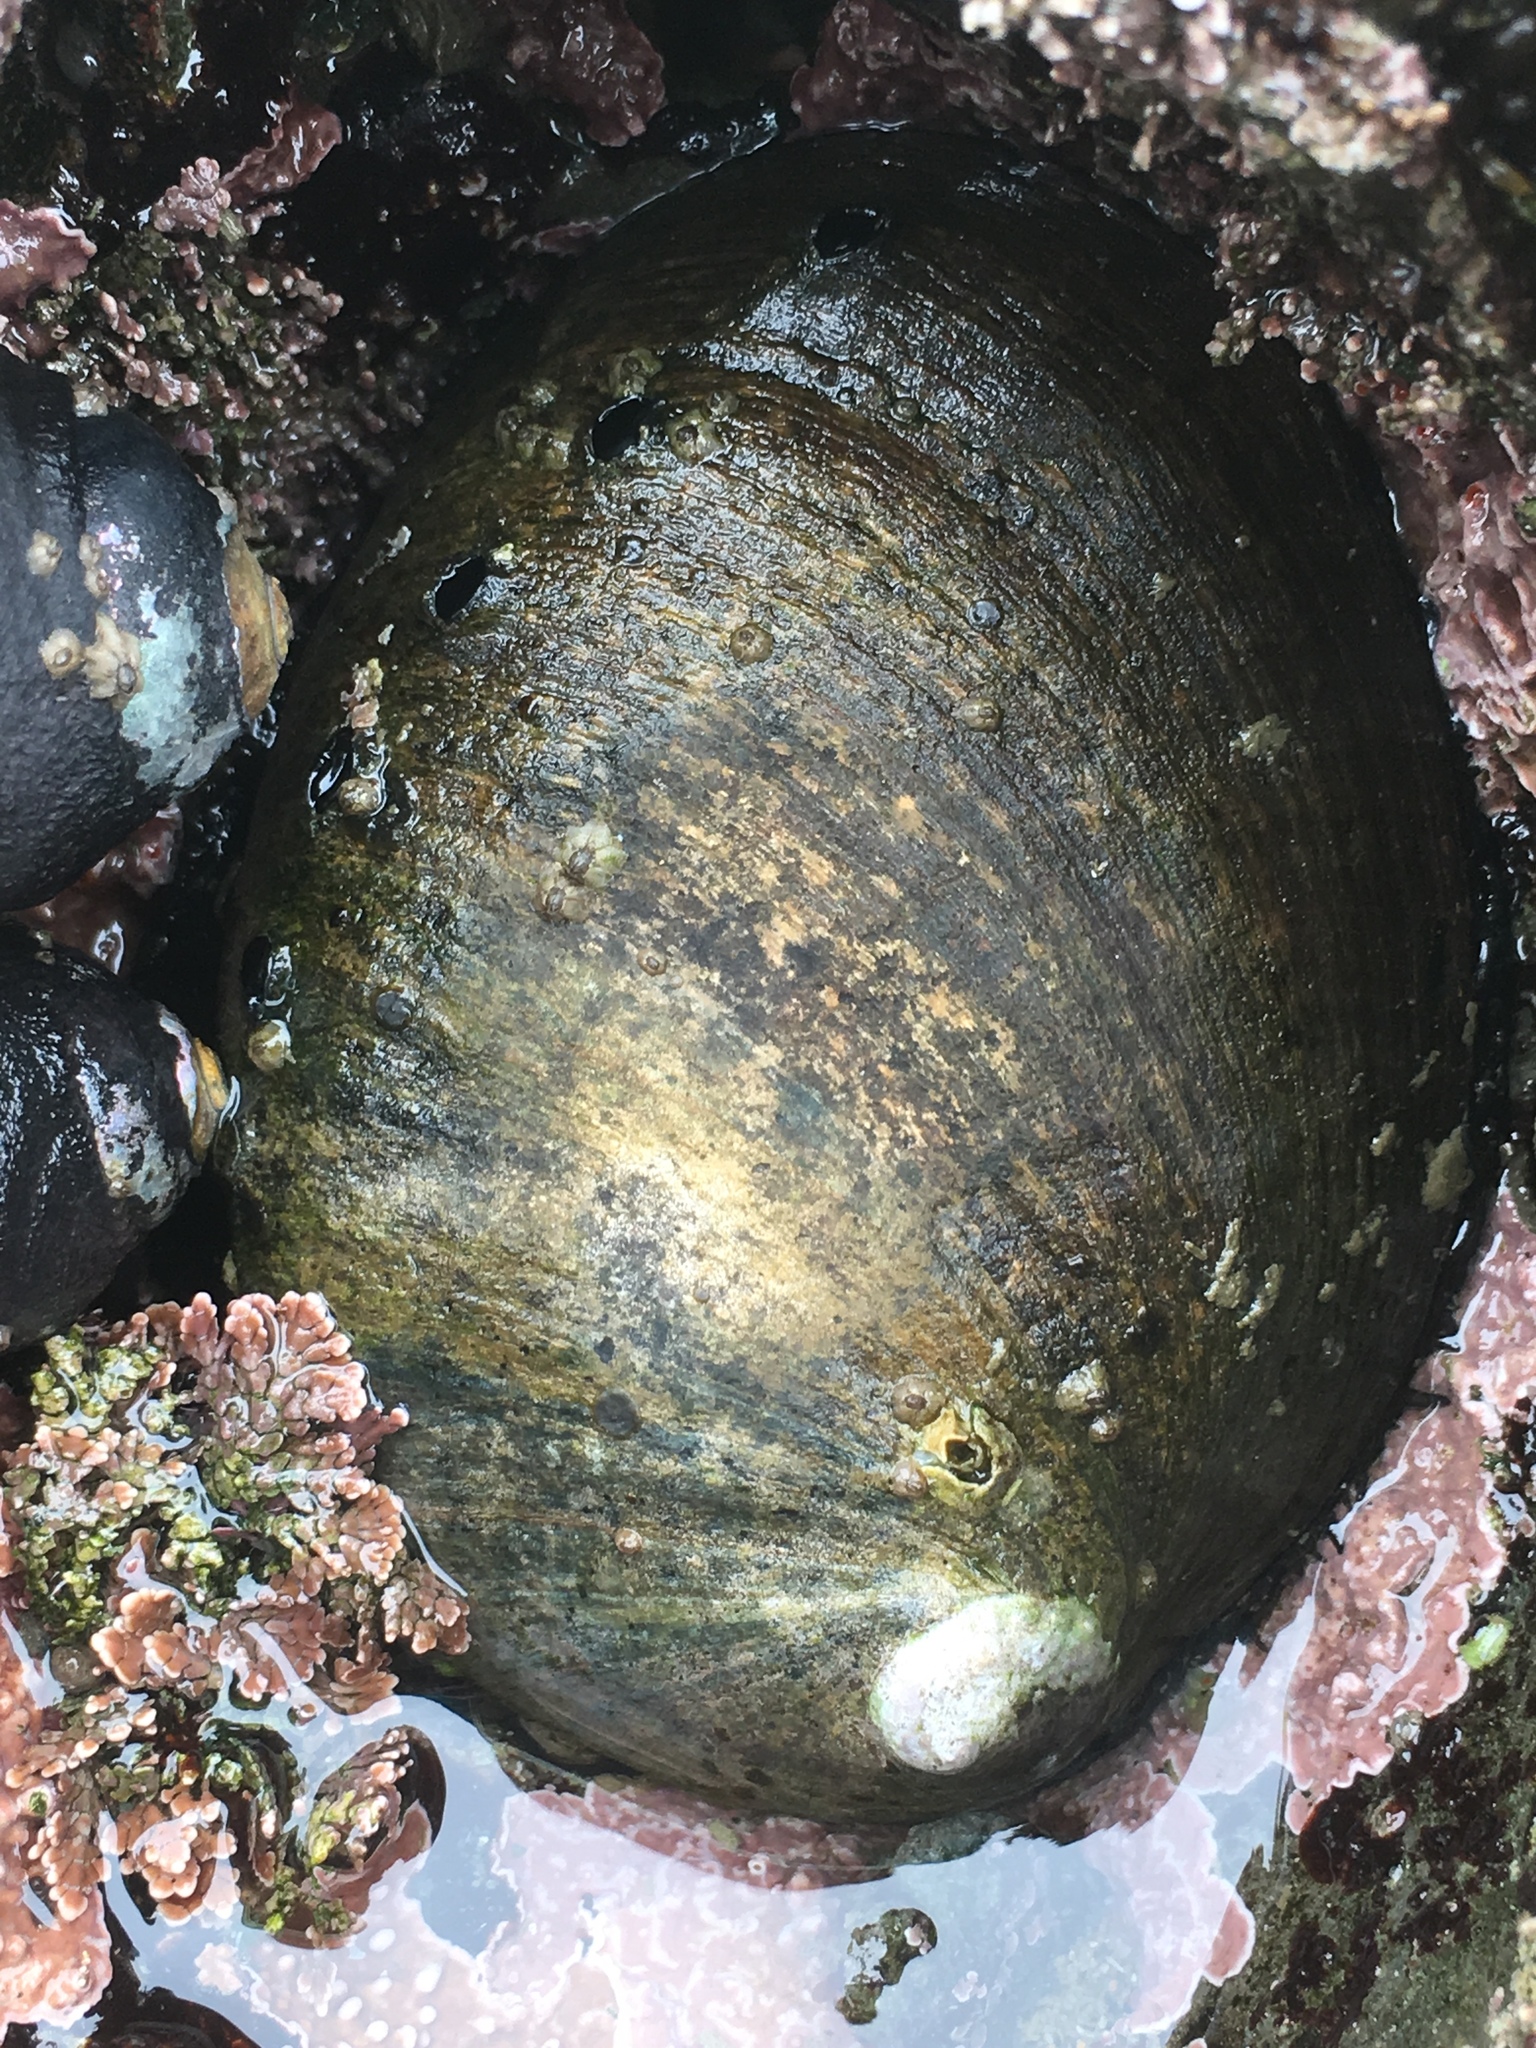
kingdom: Animalia
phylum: Mollusca
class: Gastropoda
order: Lepetellida
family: Haliotidae
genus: Haliotis
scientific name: Haliotis cracherodii
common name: Black abalone
